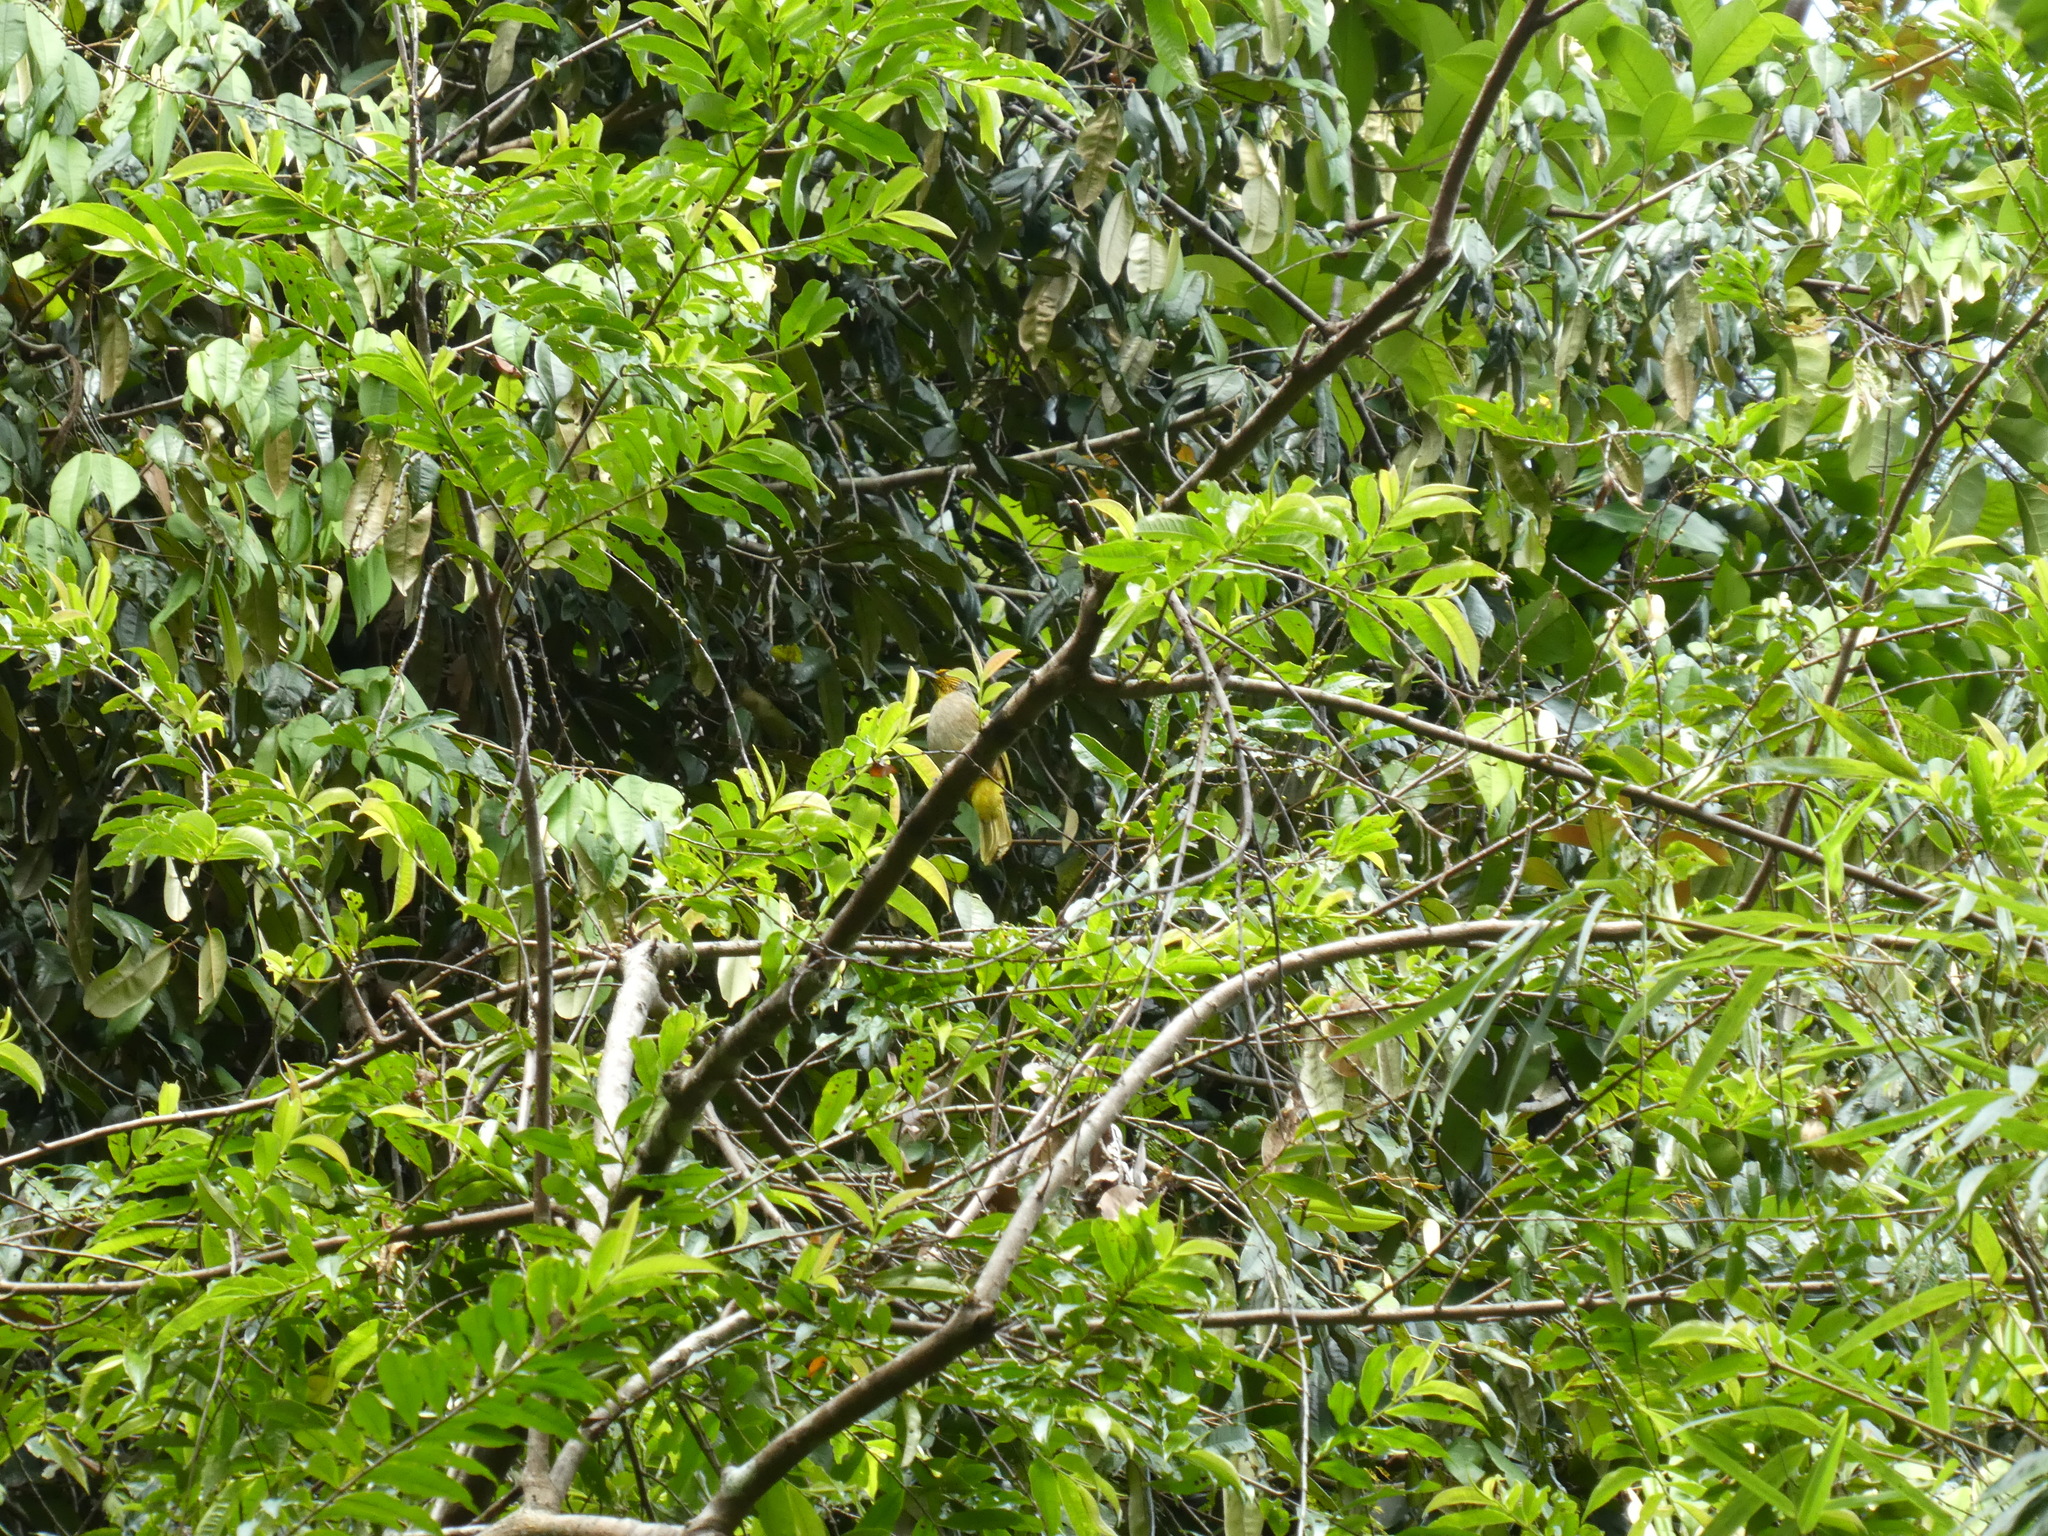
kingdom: Animalia
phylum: Chordata
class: Aves
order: Passeriformes
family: Pycnonotidae
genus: Pycnonotus
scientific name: Pycnonotus finlaysoni
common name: Stripe-throated bulbul
